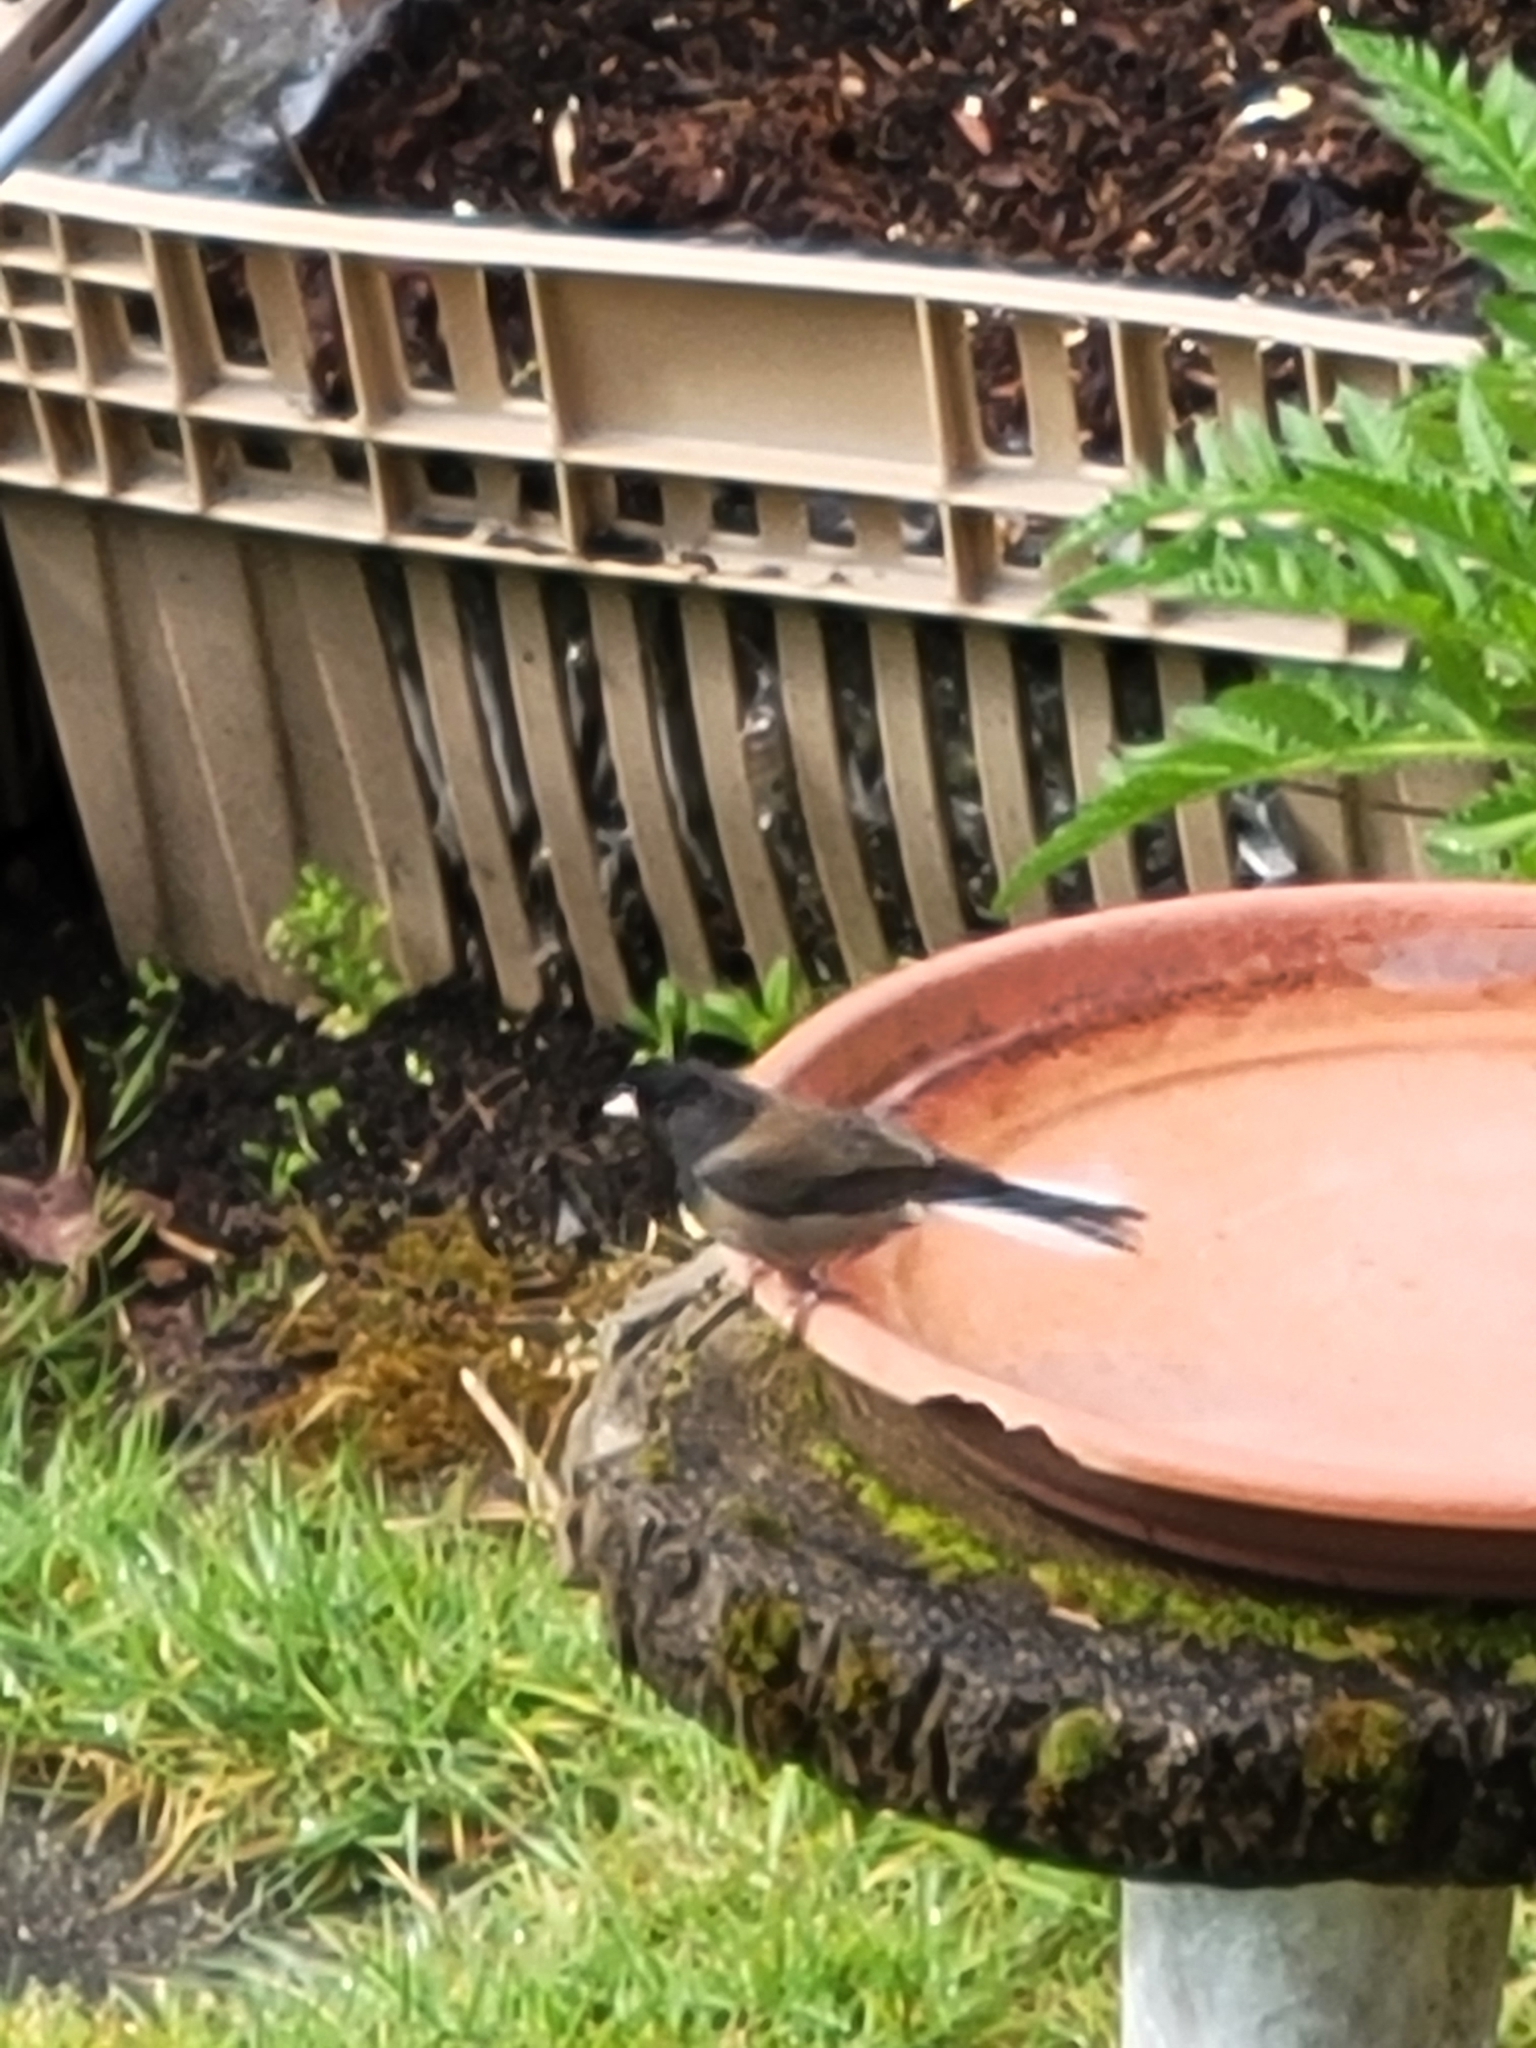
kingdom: Animalia
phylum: Chordata
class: Aves
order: Passeriformes
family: Passerellidae
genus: Junco
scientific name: Junco hyemalis
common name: Dark-eyed junco
